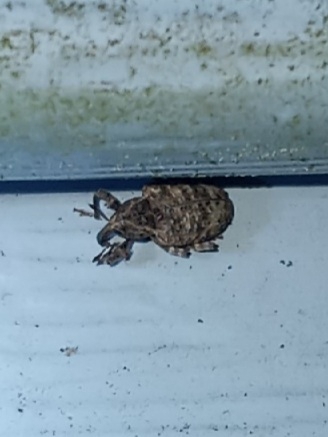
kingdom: Animalia
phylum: Arthropoda
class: Insecta
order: Coleoptera
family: Curculionidae
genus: Conotrachelus
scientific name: Conotrachelus seniculus
